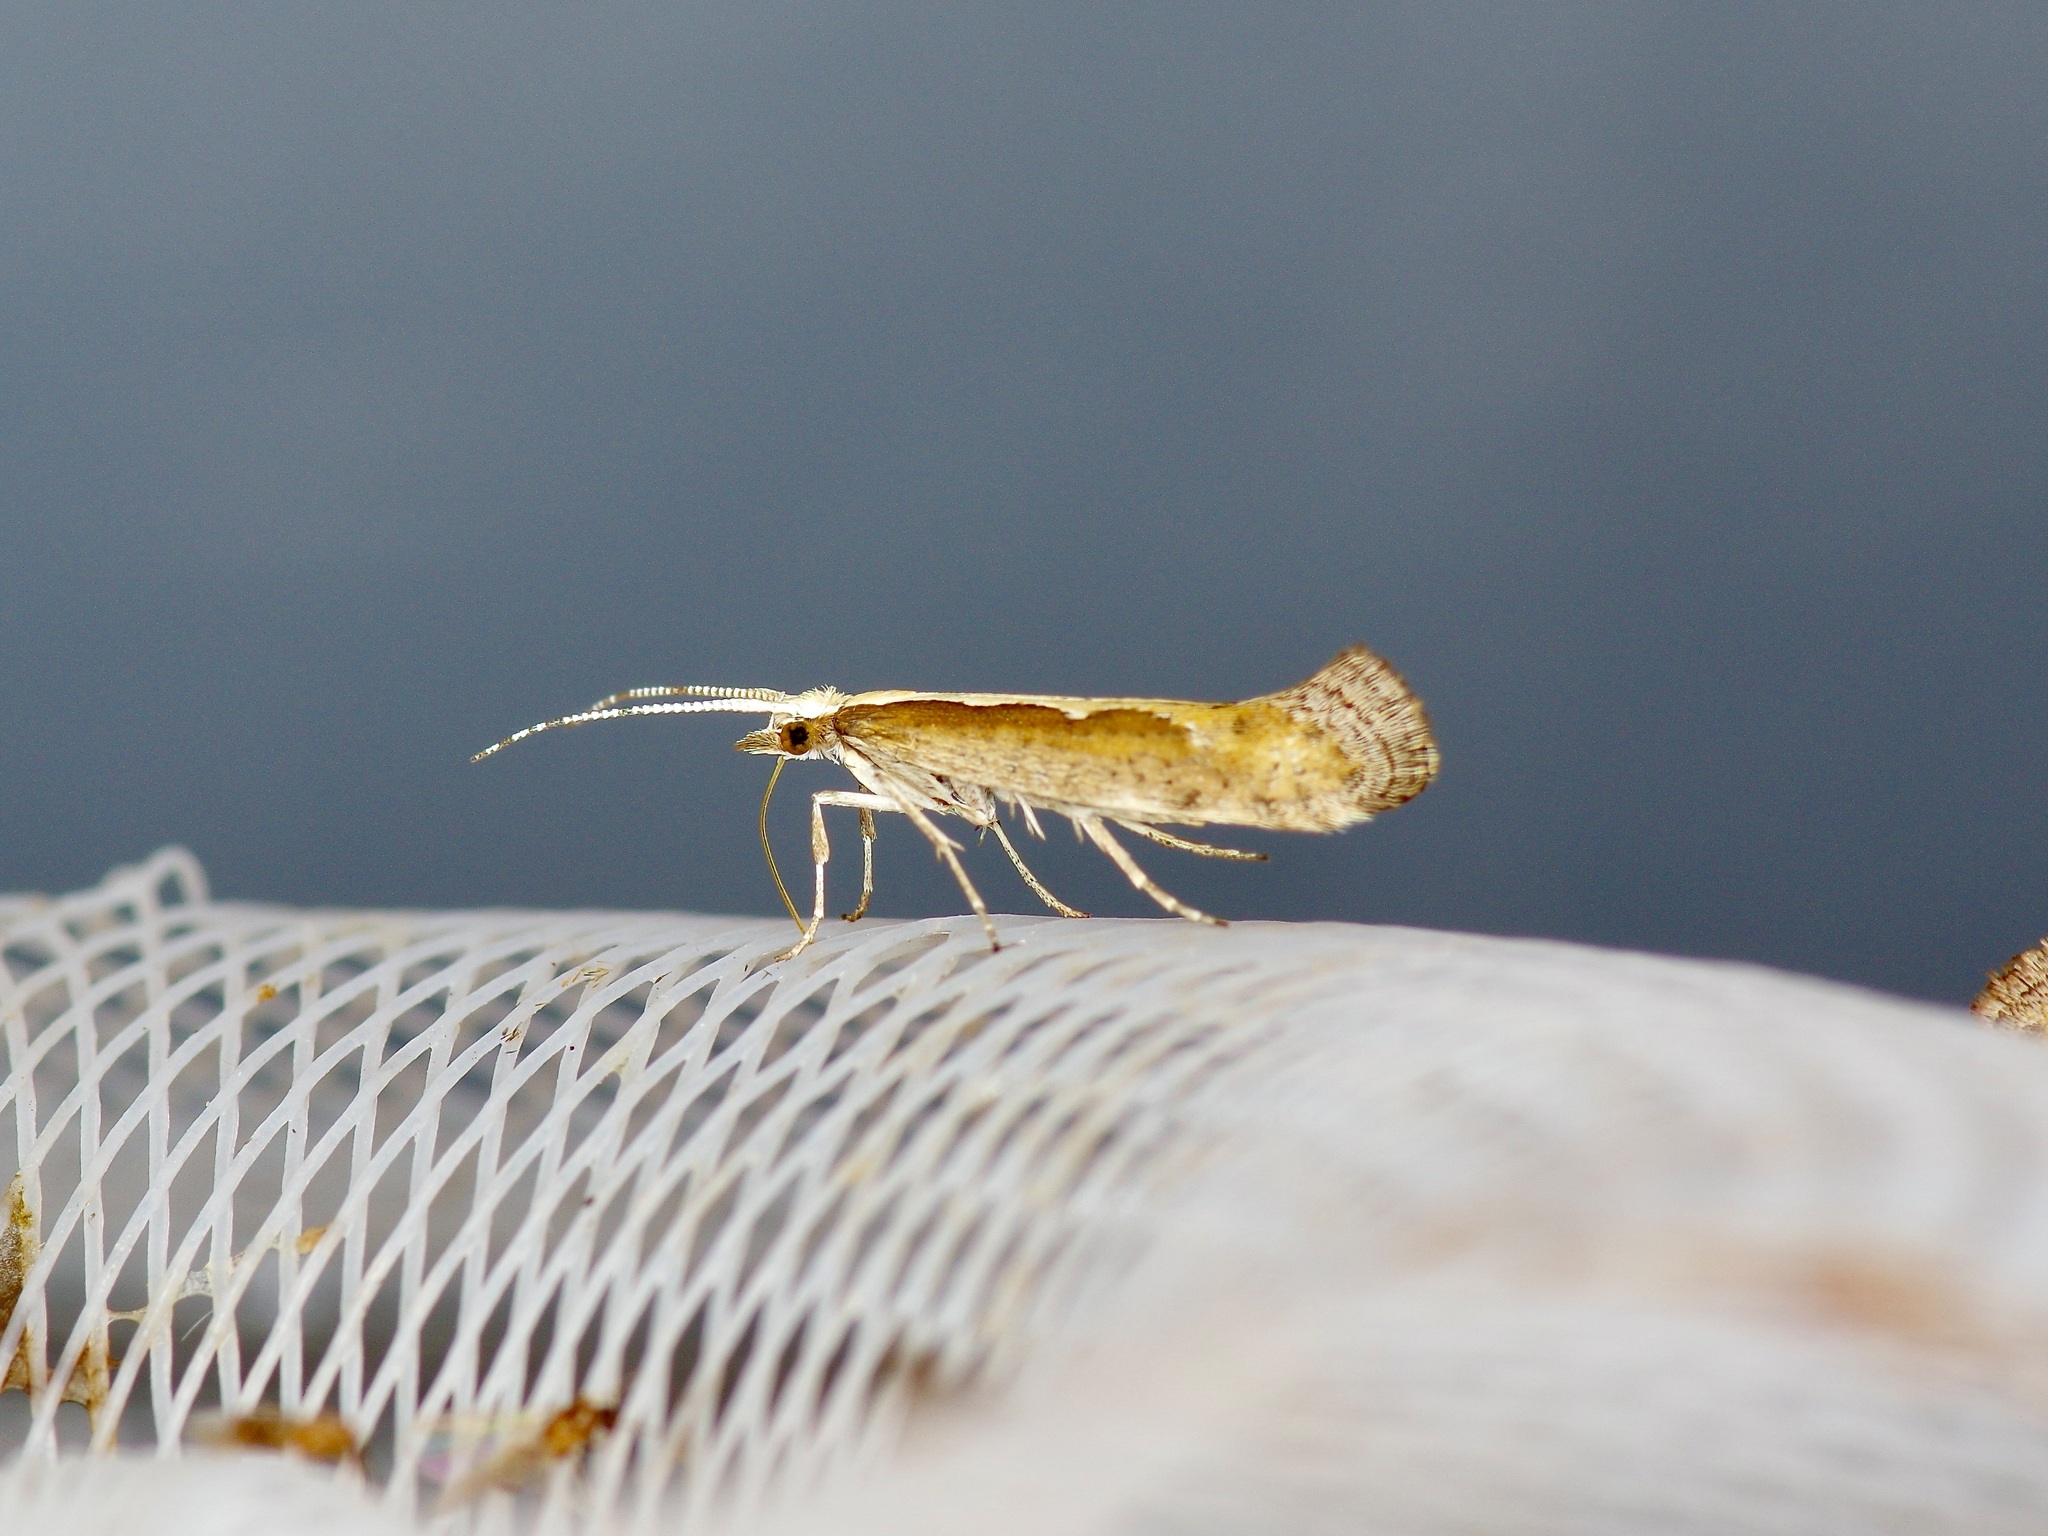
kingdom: Animalia
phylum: Arthropoda
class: Insecta
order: Lepidoptera
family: Plutellidae
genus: Plutella
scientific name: Plutella xylostella
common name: Diamond-back moth
